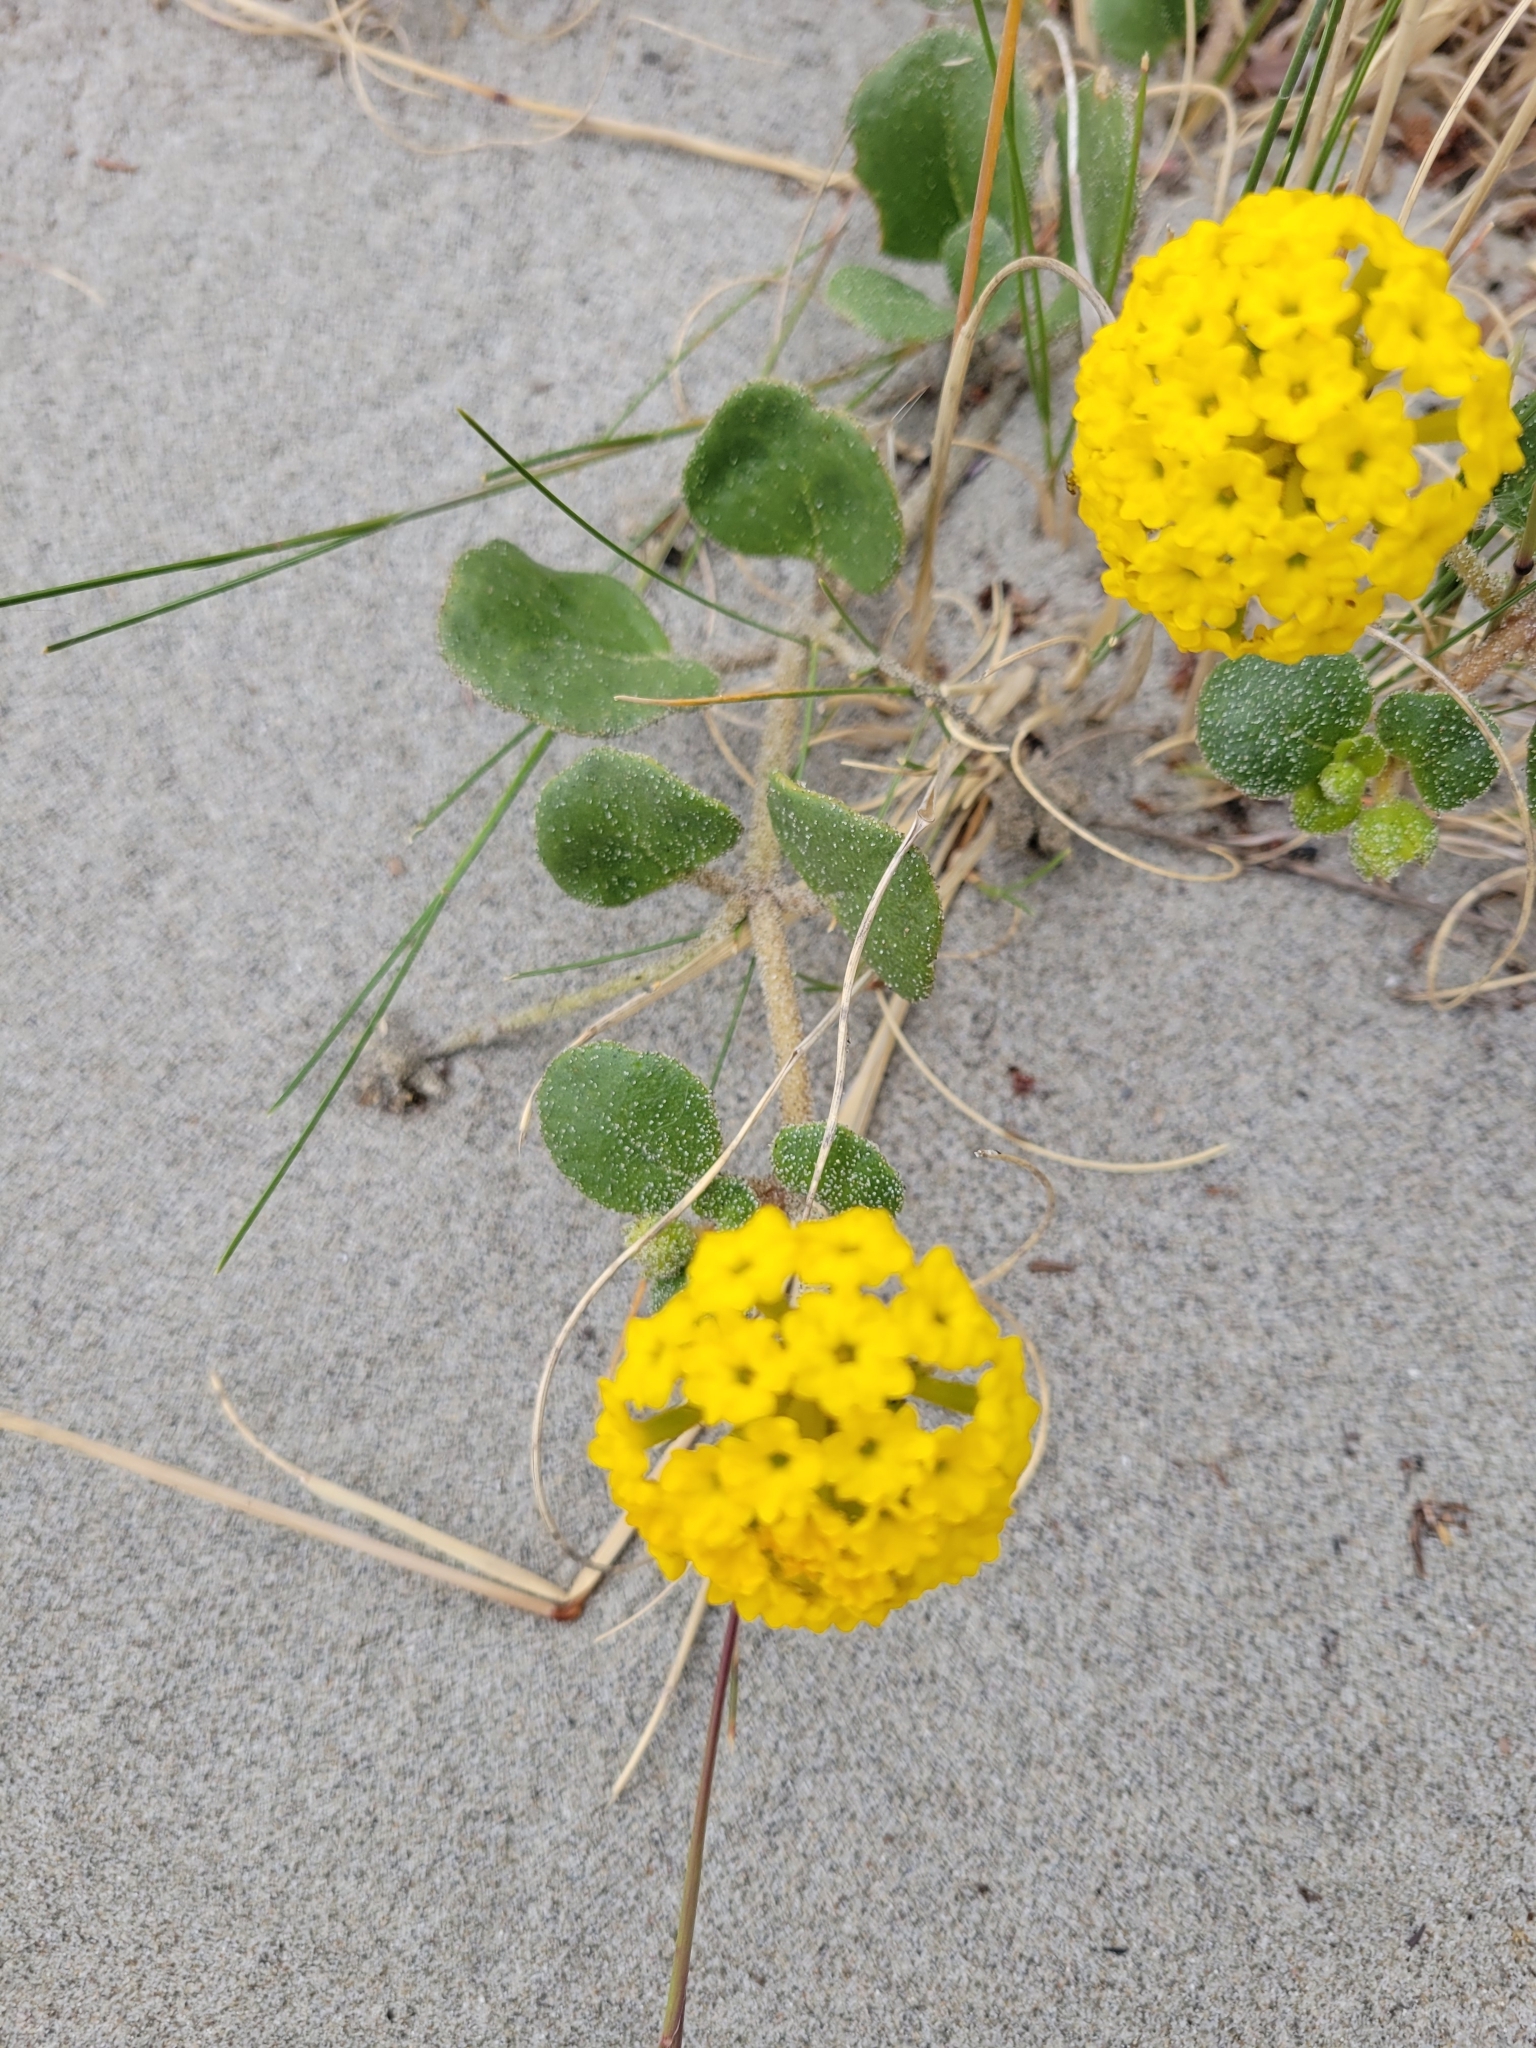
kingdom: Plantae
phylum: Tracheophyta
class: Magnoliopsida
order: Caryophyllales
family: Nyctaginaceae
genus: Abronia
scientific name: Abronia latifolia
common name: Yellow sand-verbena
